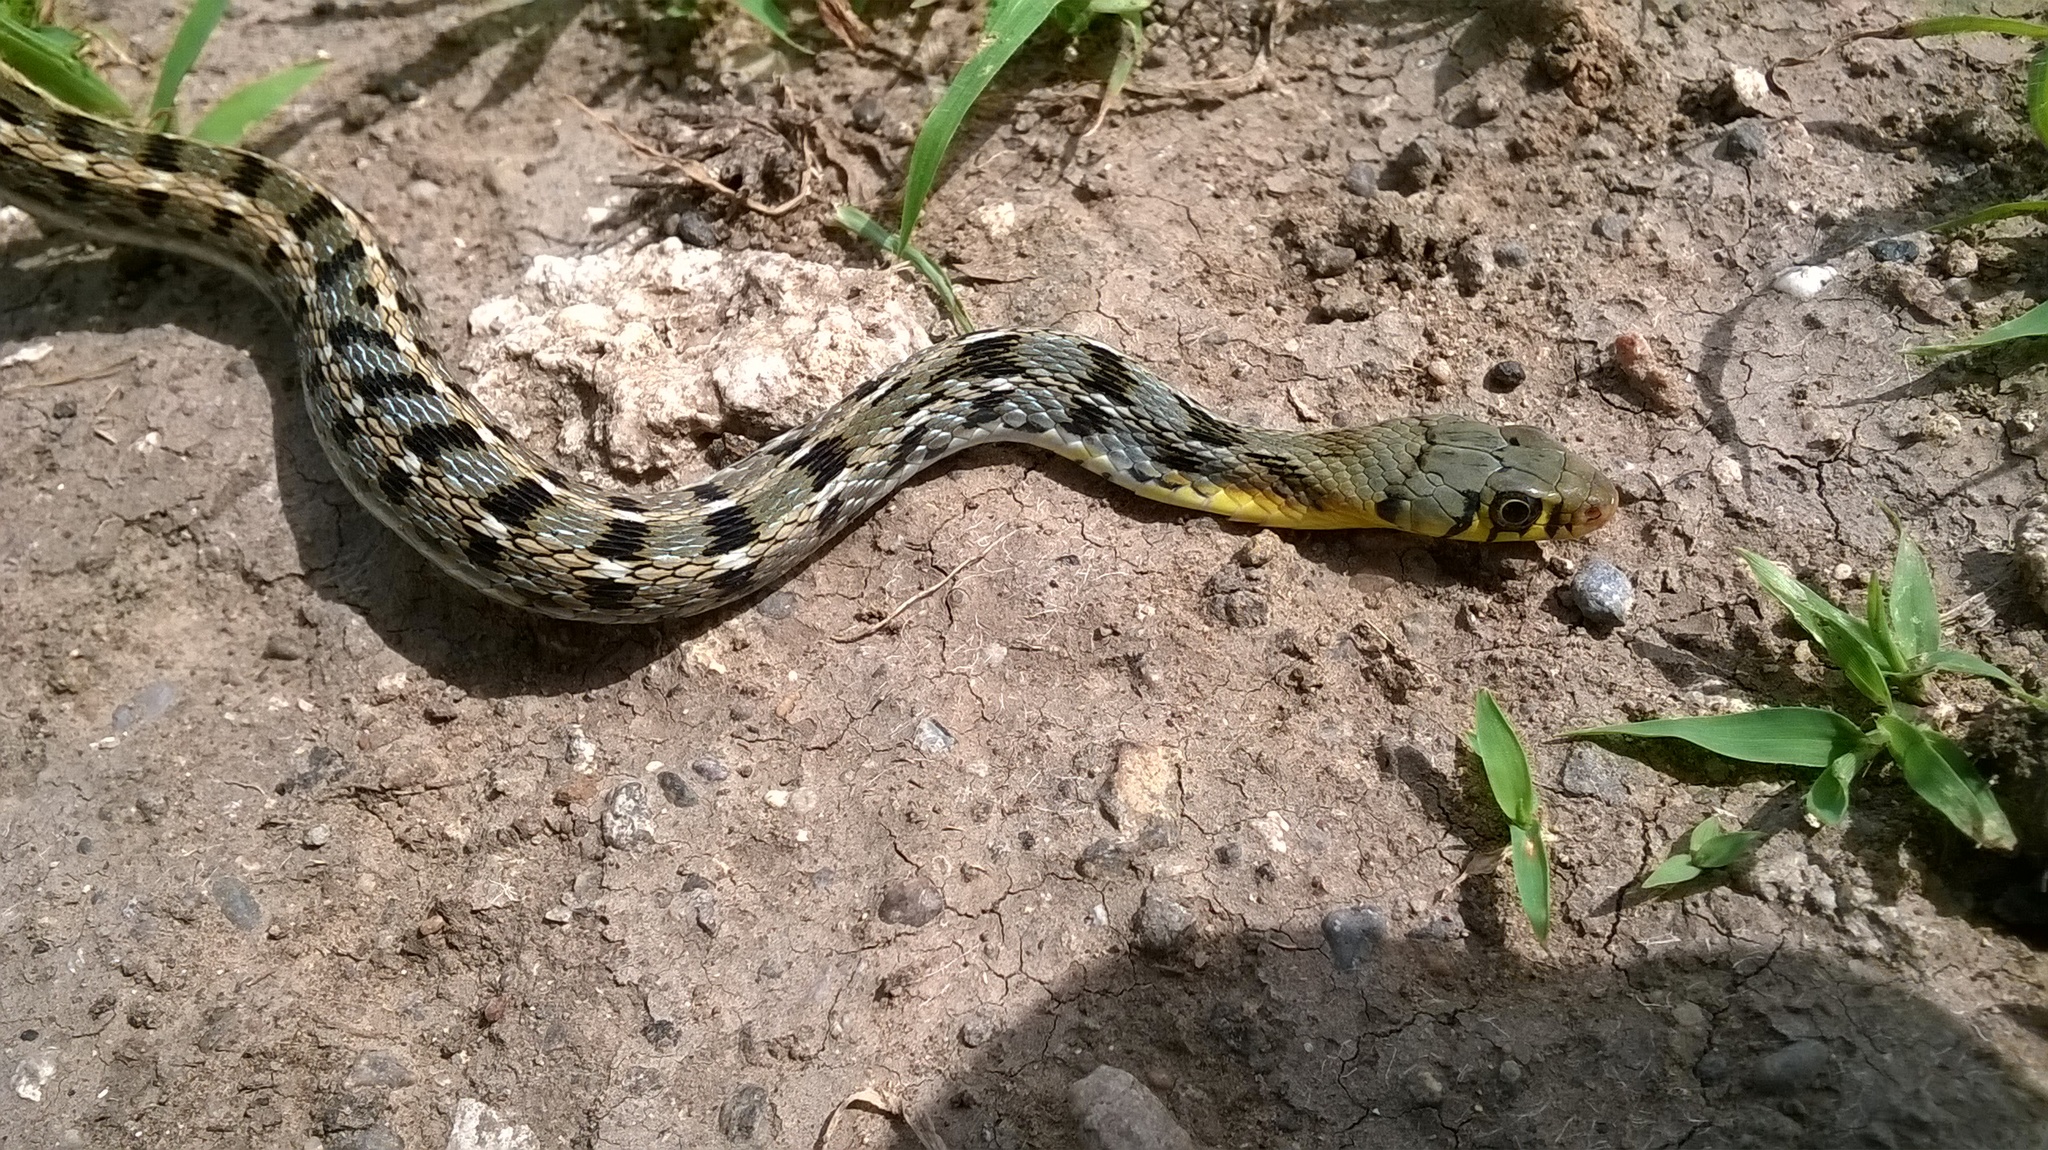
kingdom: Animalia
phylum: Chordata
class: Squamata
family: Colubridae
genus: Amphiesma
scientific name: Amphiesma stolatum
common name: Buff striped keelback
